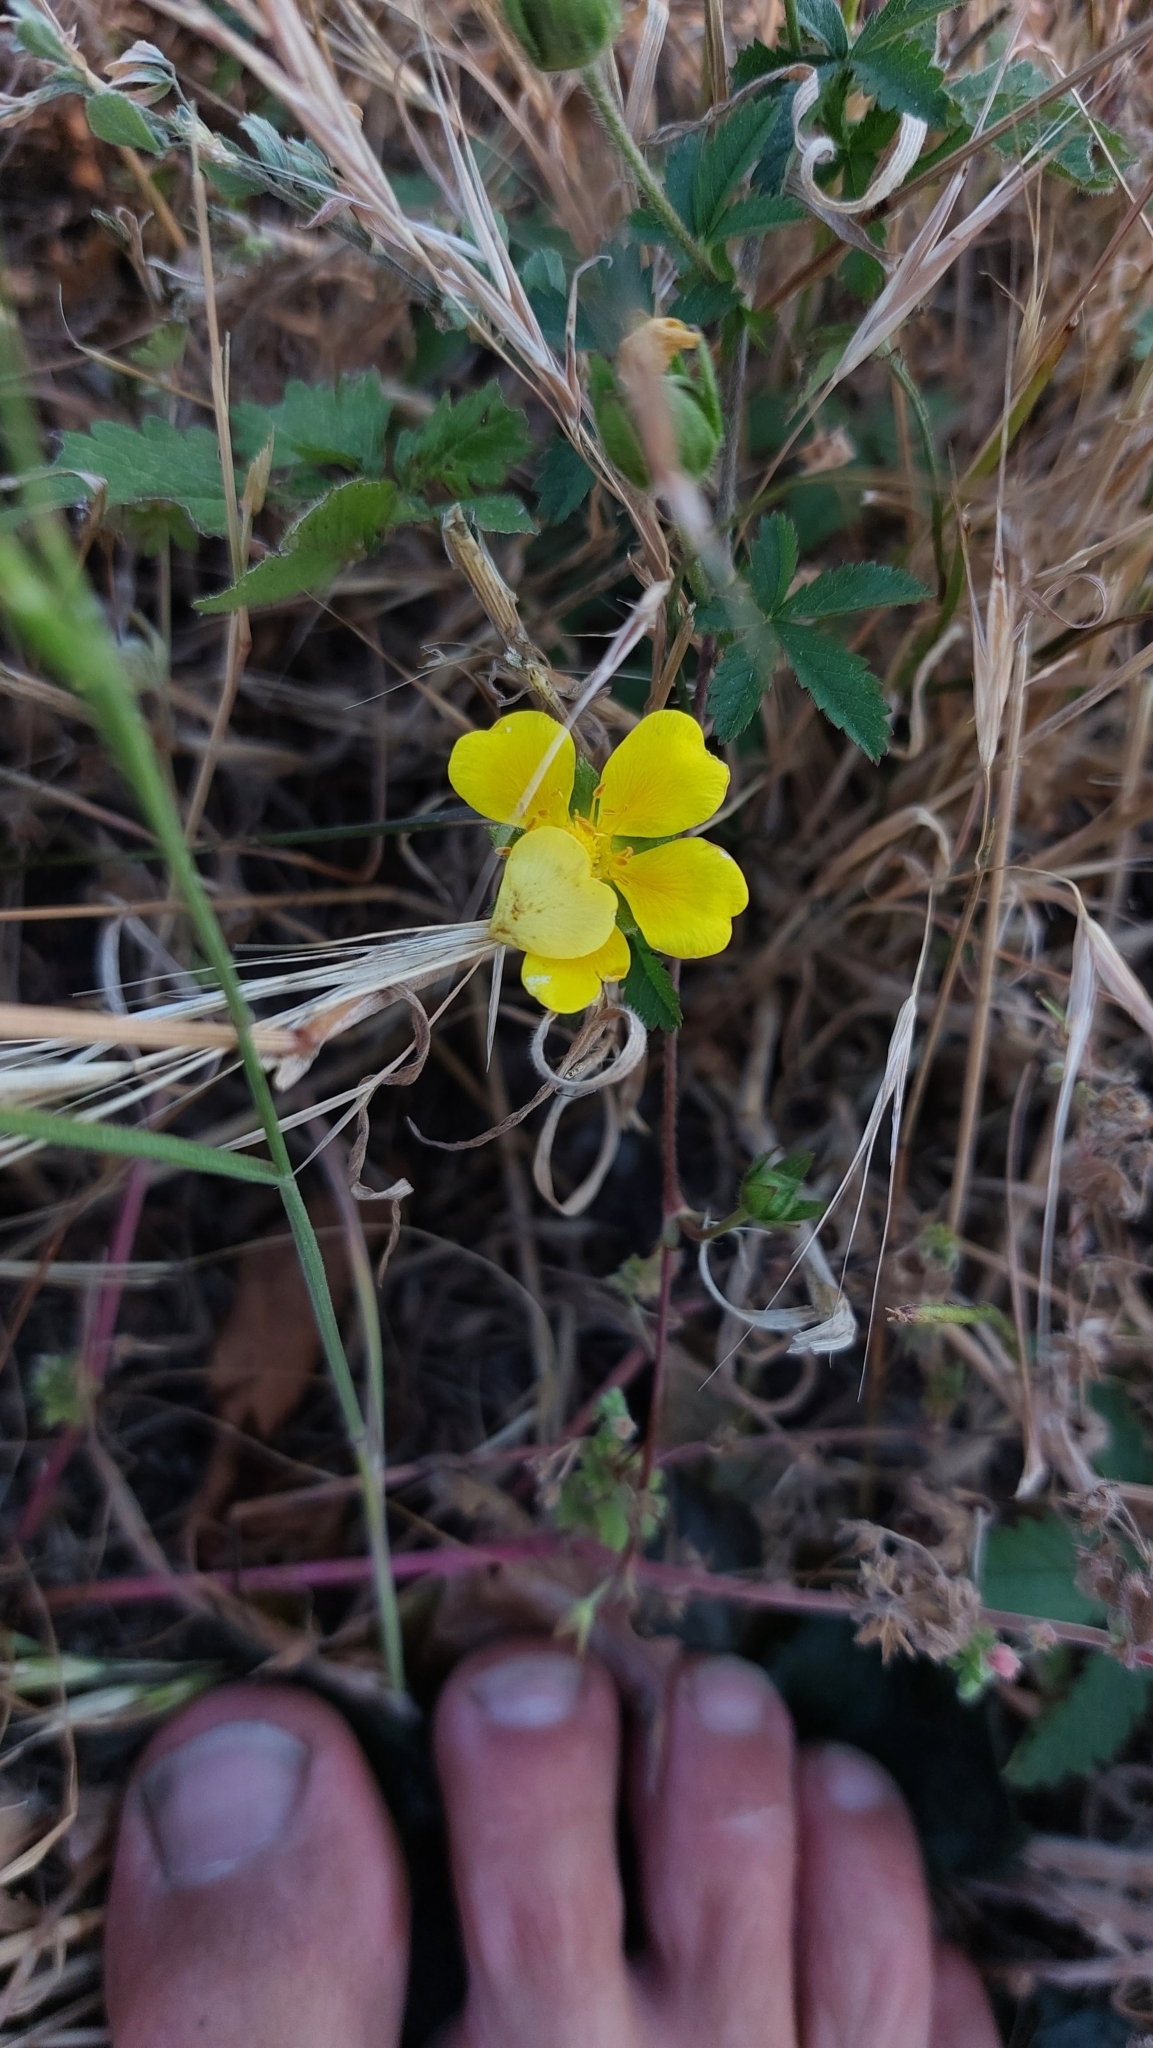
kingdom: Plantae
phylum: Tracheophyta
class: Magnoliopsida
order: Rosales
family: Rosaceae
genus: Potentilla
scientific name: Potentilla reptans
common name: Creeping cinquefoil
